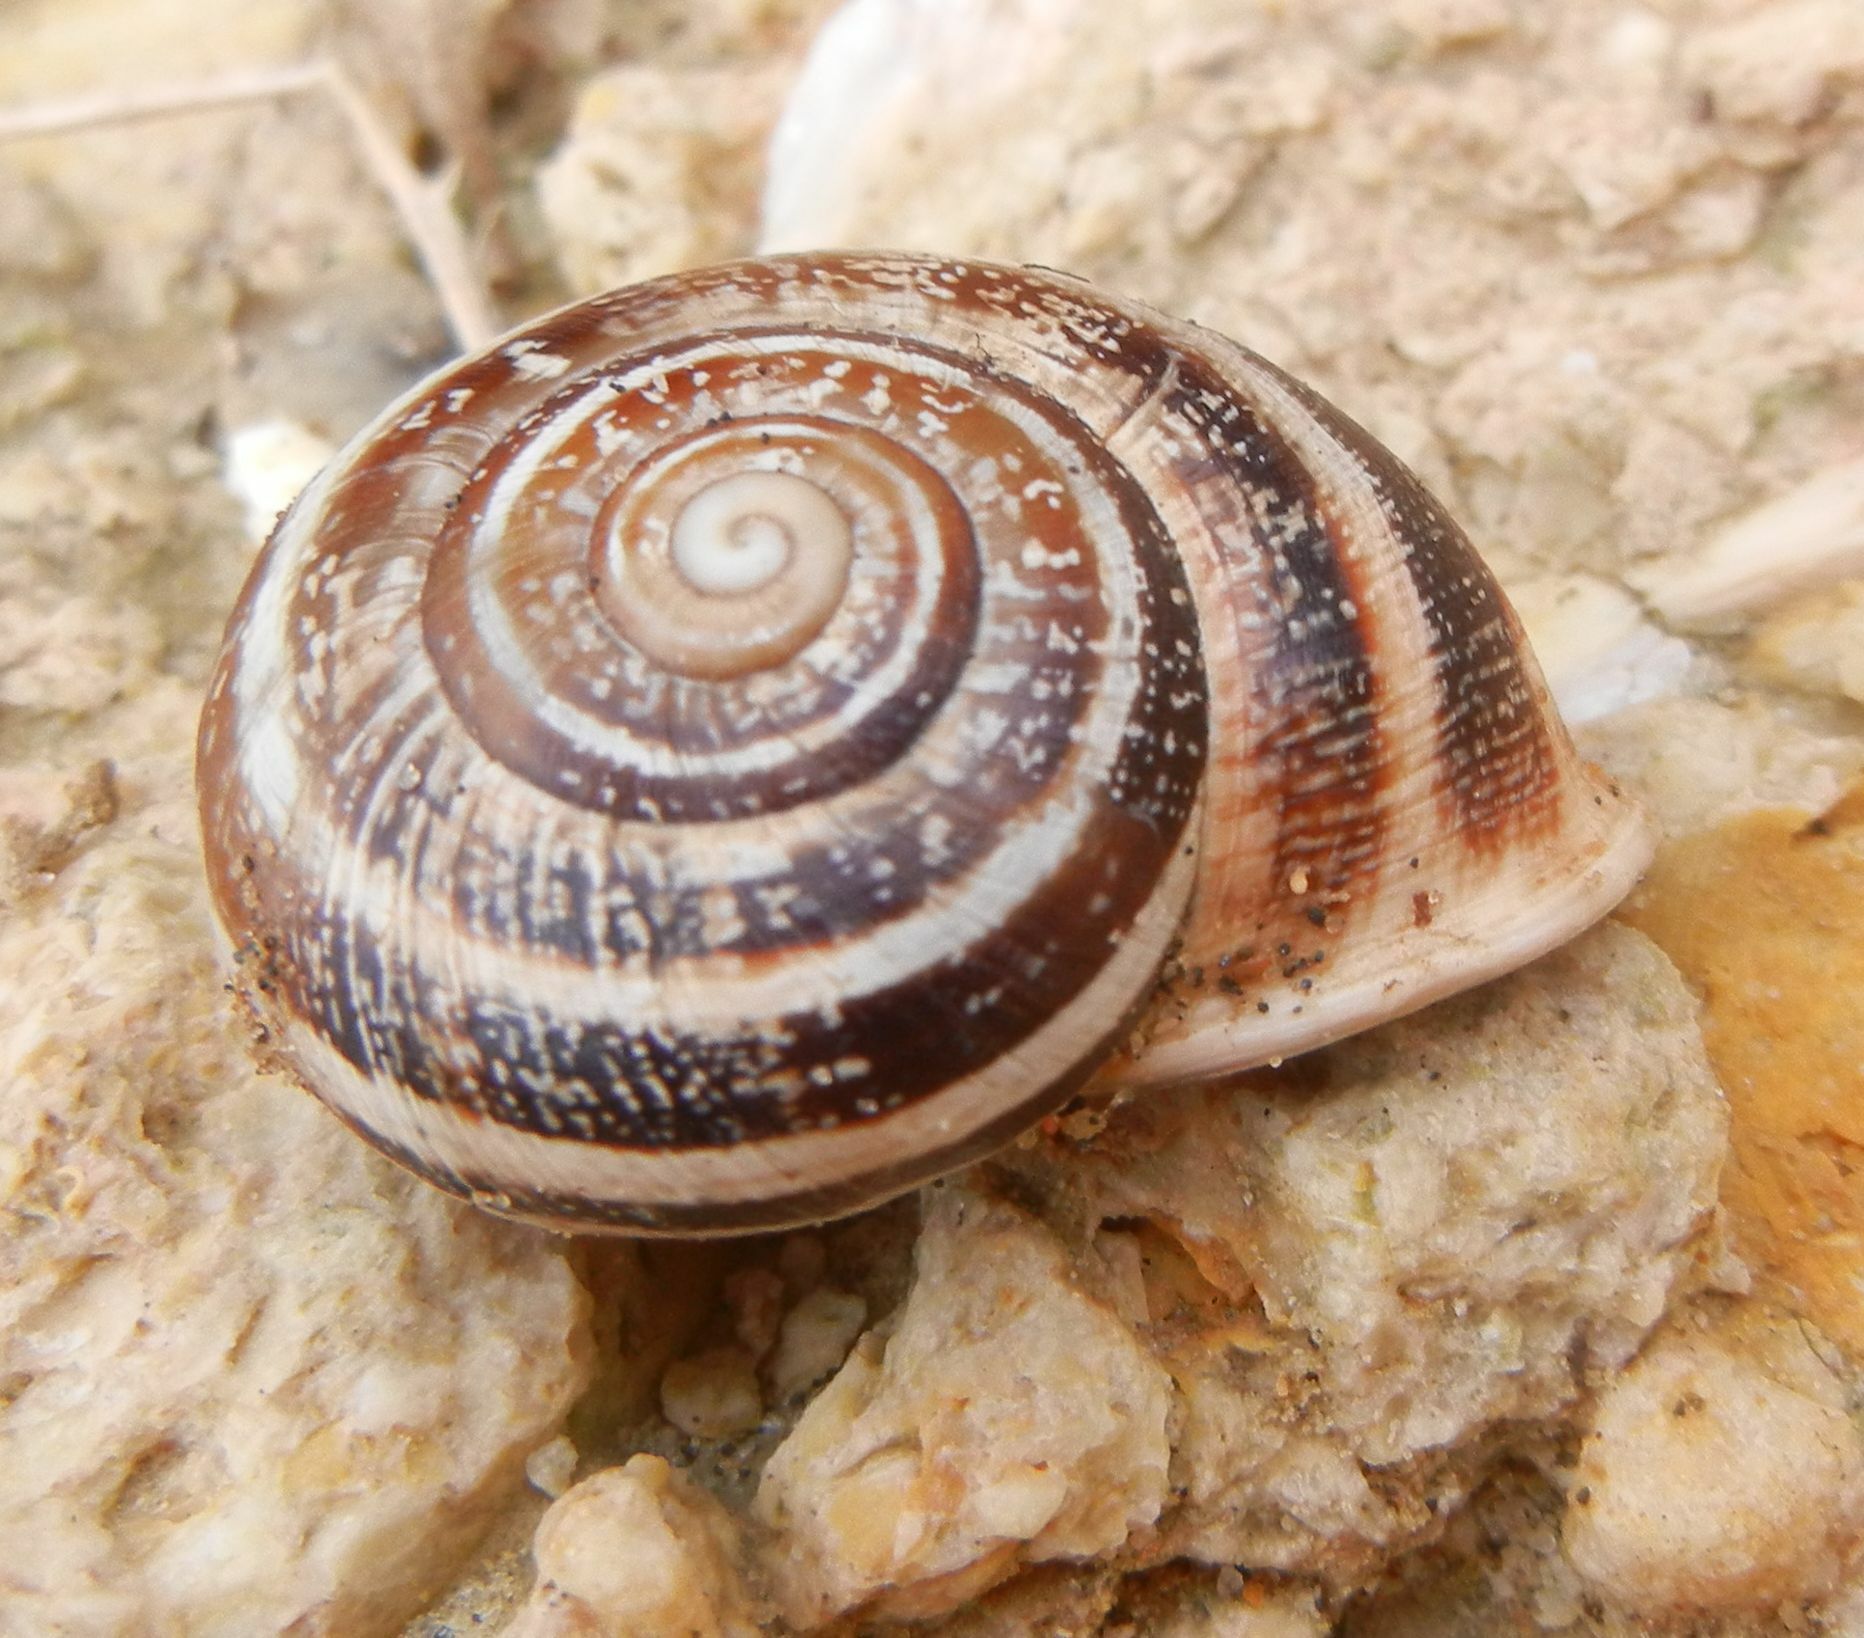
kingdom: Animalia
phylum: Mollusca
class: Gastropoda
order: Stylommatophora
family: Helicidae
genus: Otala
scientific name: Otala lactea
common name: Milk snail
